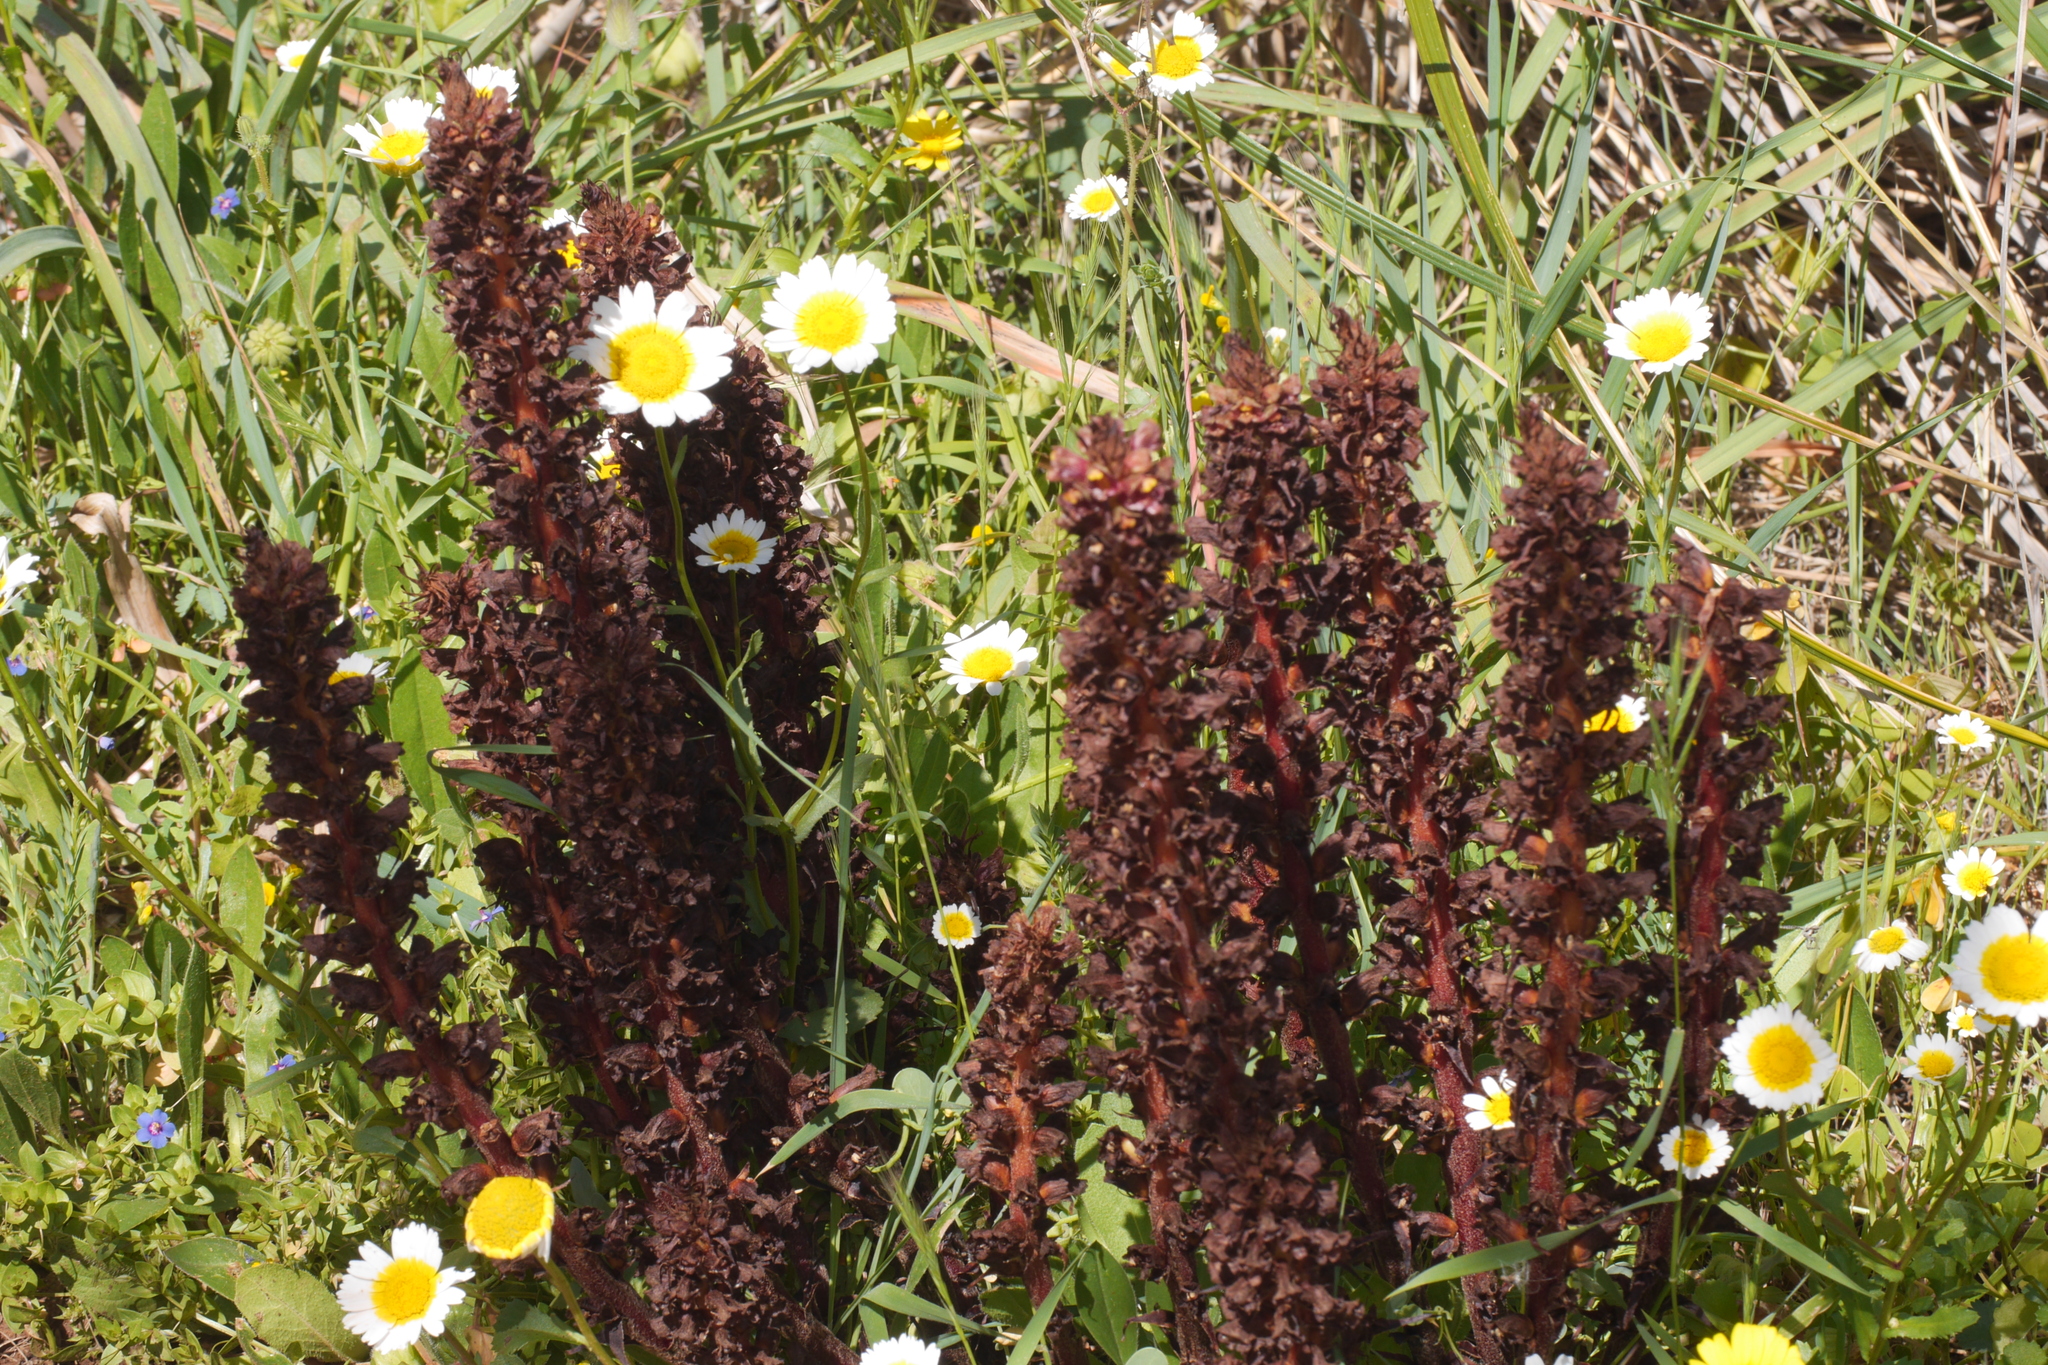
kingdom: Plantae
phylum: Tracheophyta
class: Magnoliopsida
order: Lamiales
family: Orobanchaceae
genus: Orobanche
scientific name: Orobanche variegata
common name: Variegated broomrape
